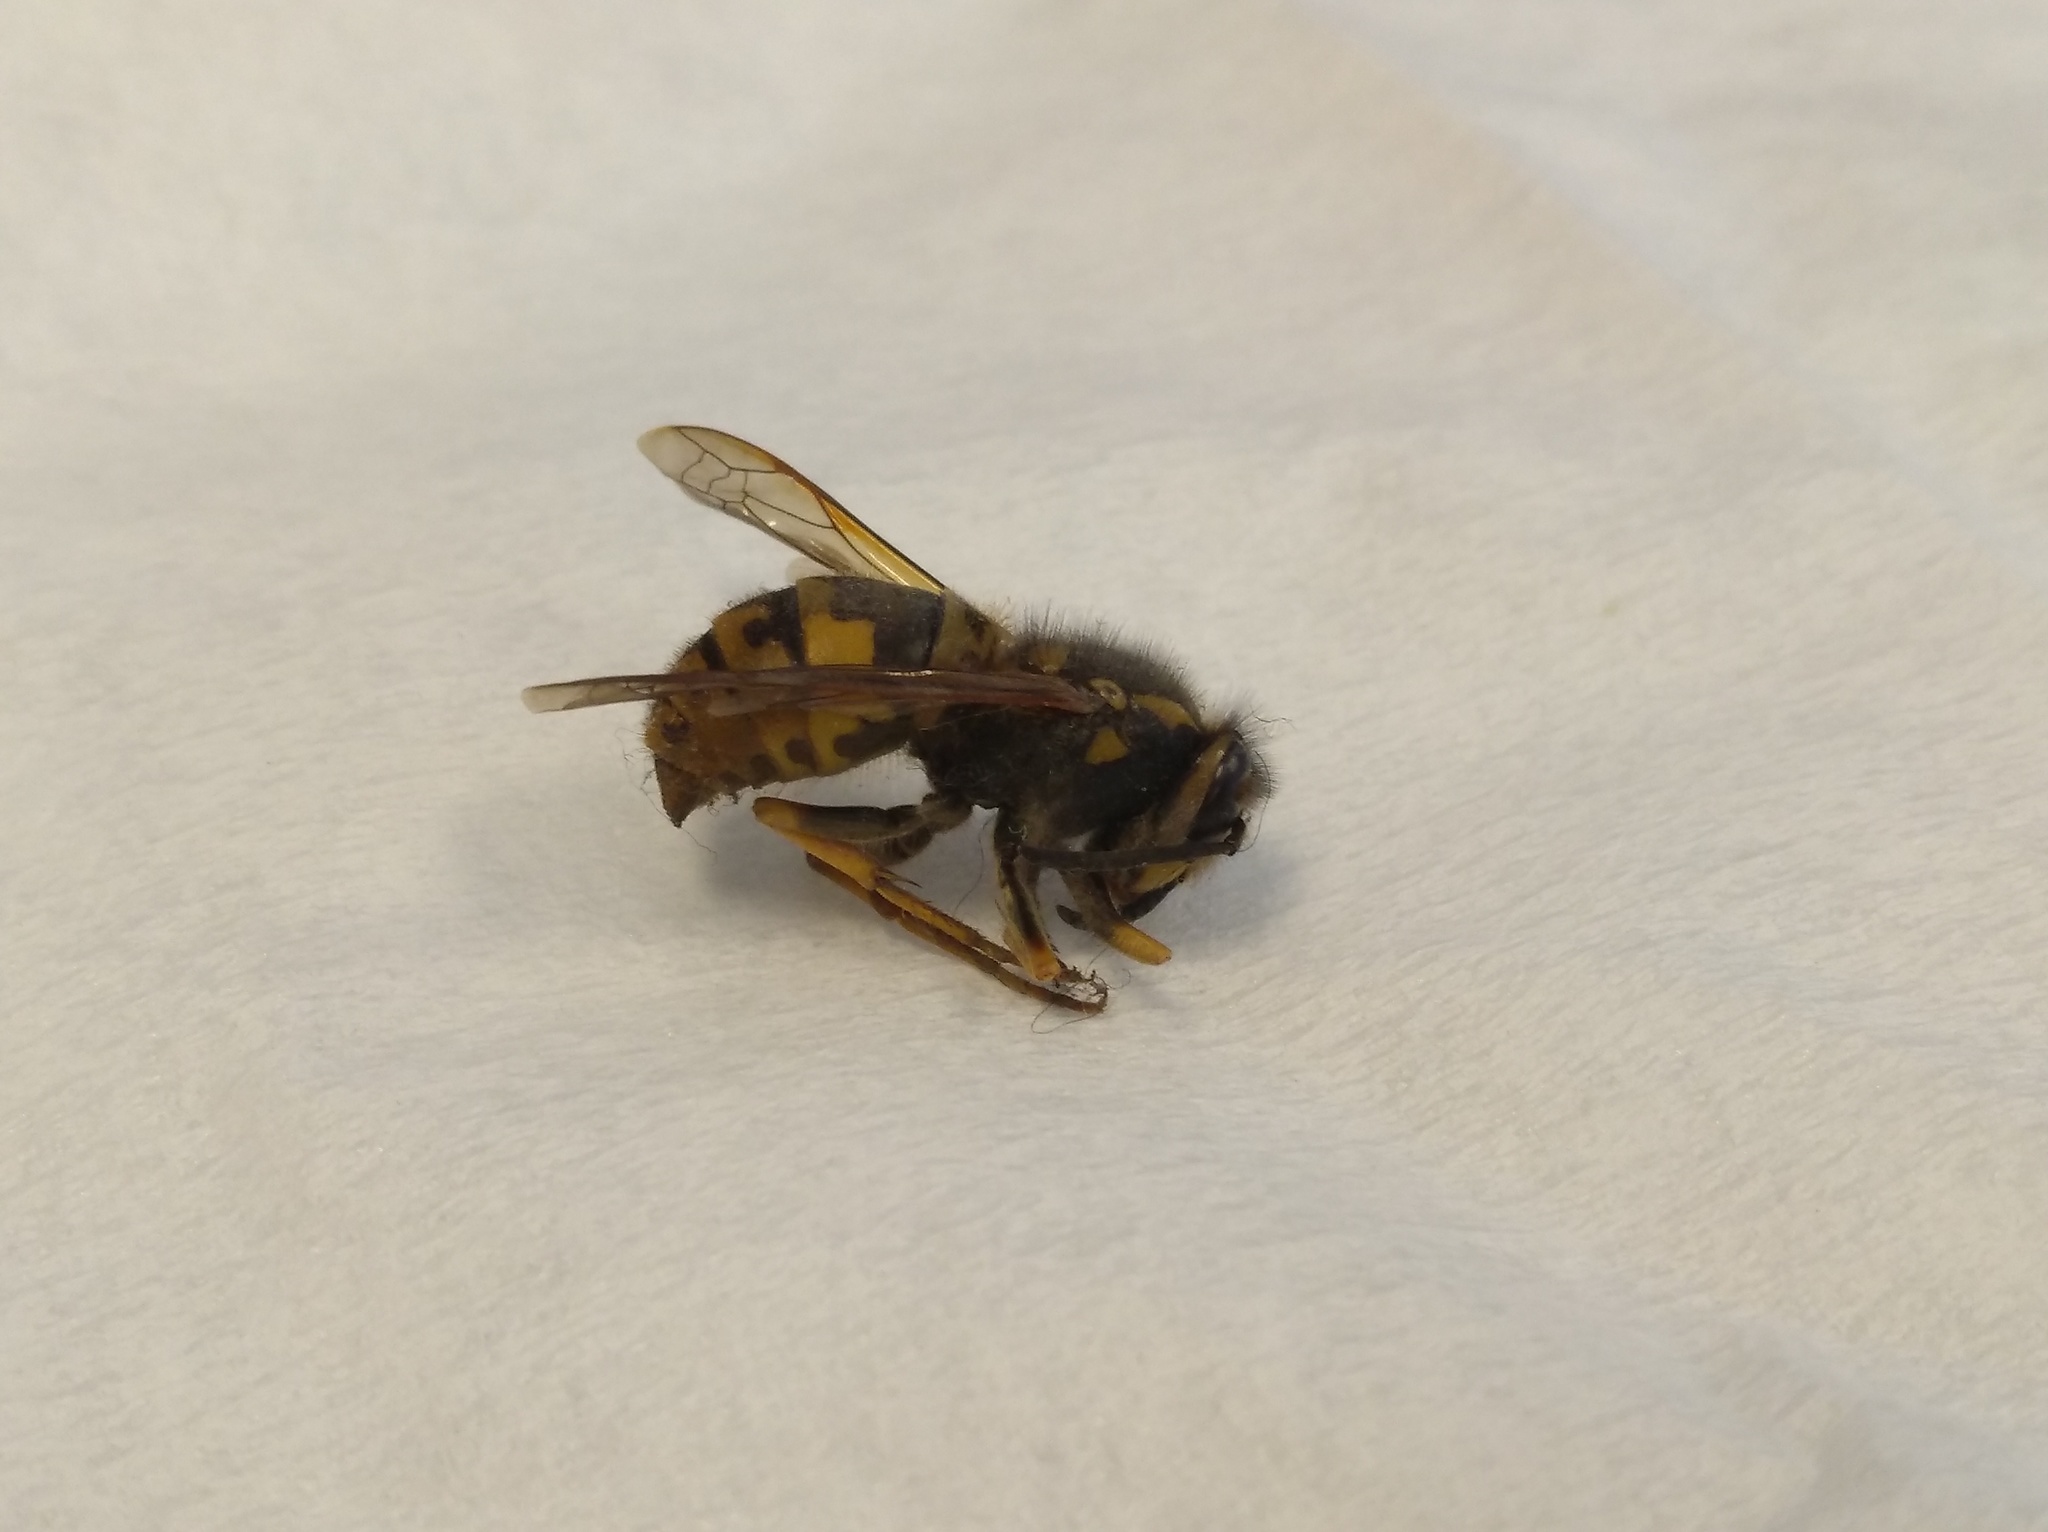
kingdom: Animalia
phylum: Arthropoda
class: Insecta
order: Hymenoptera
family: Vespidae
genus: Vespula
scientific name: Vespula germanica
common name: German wasp
